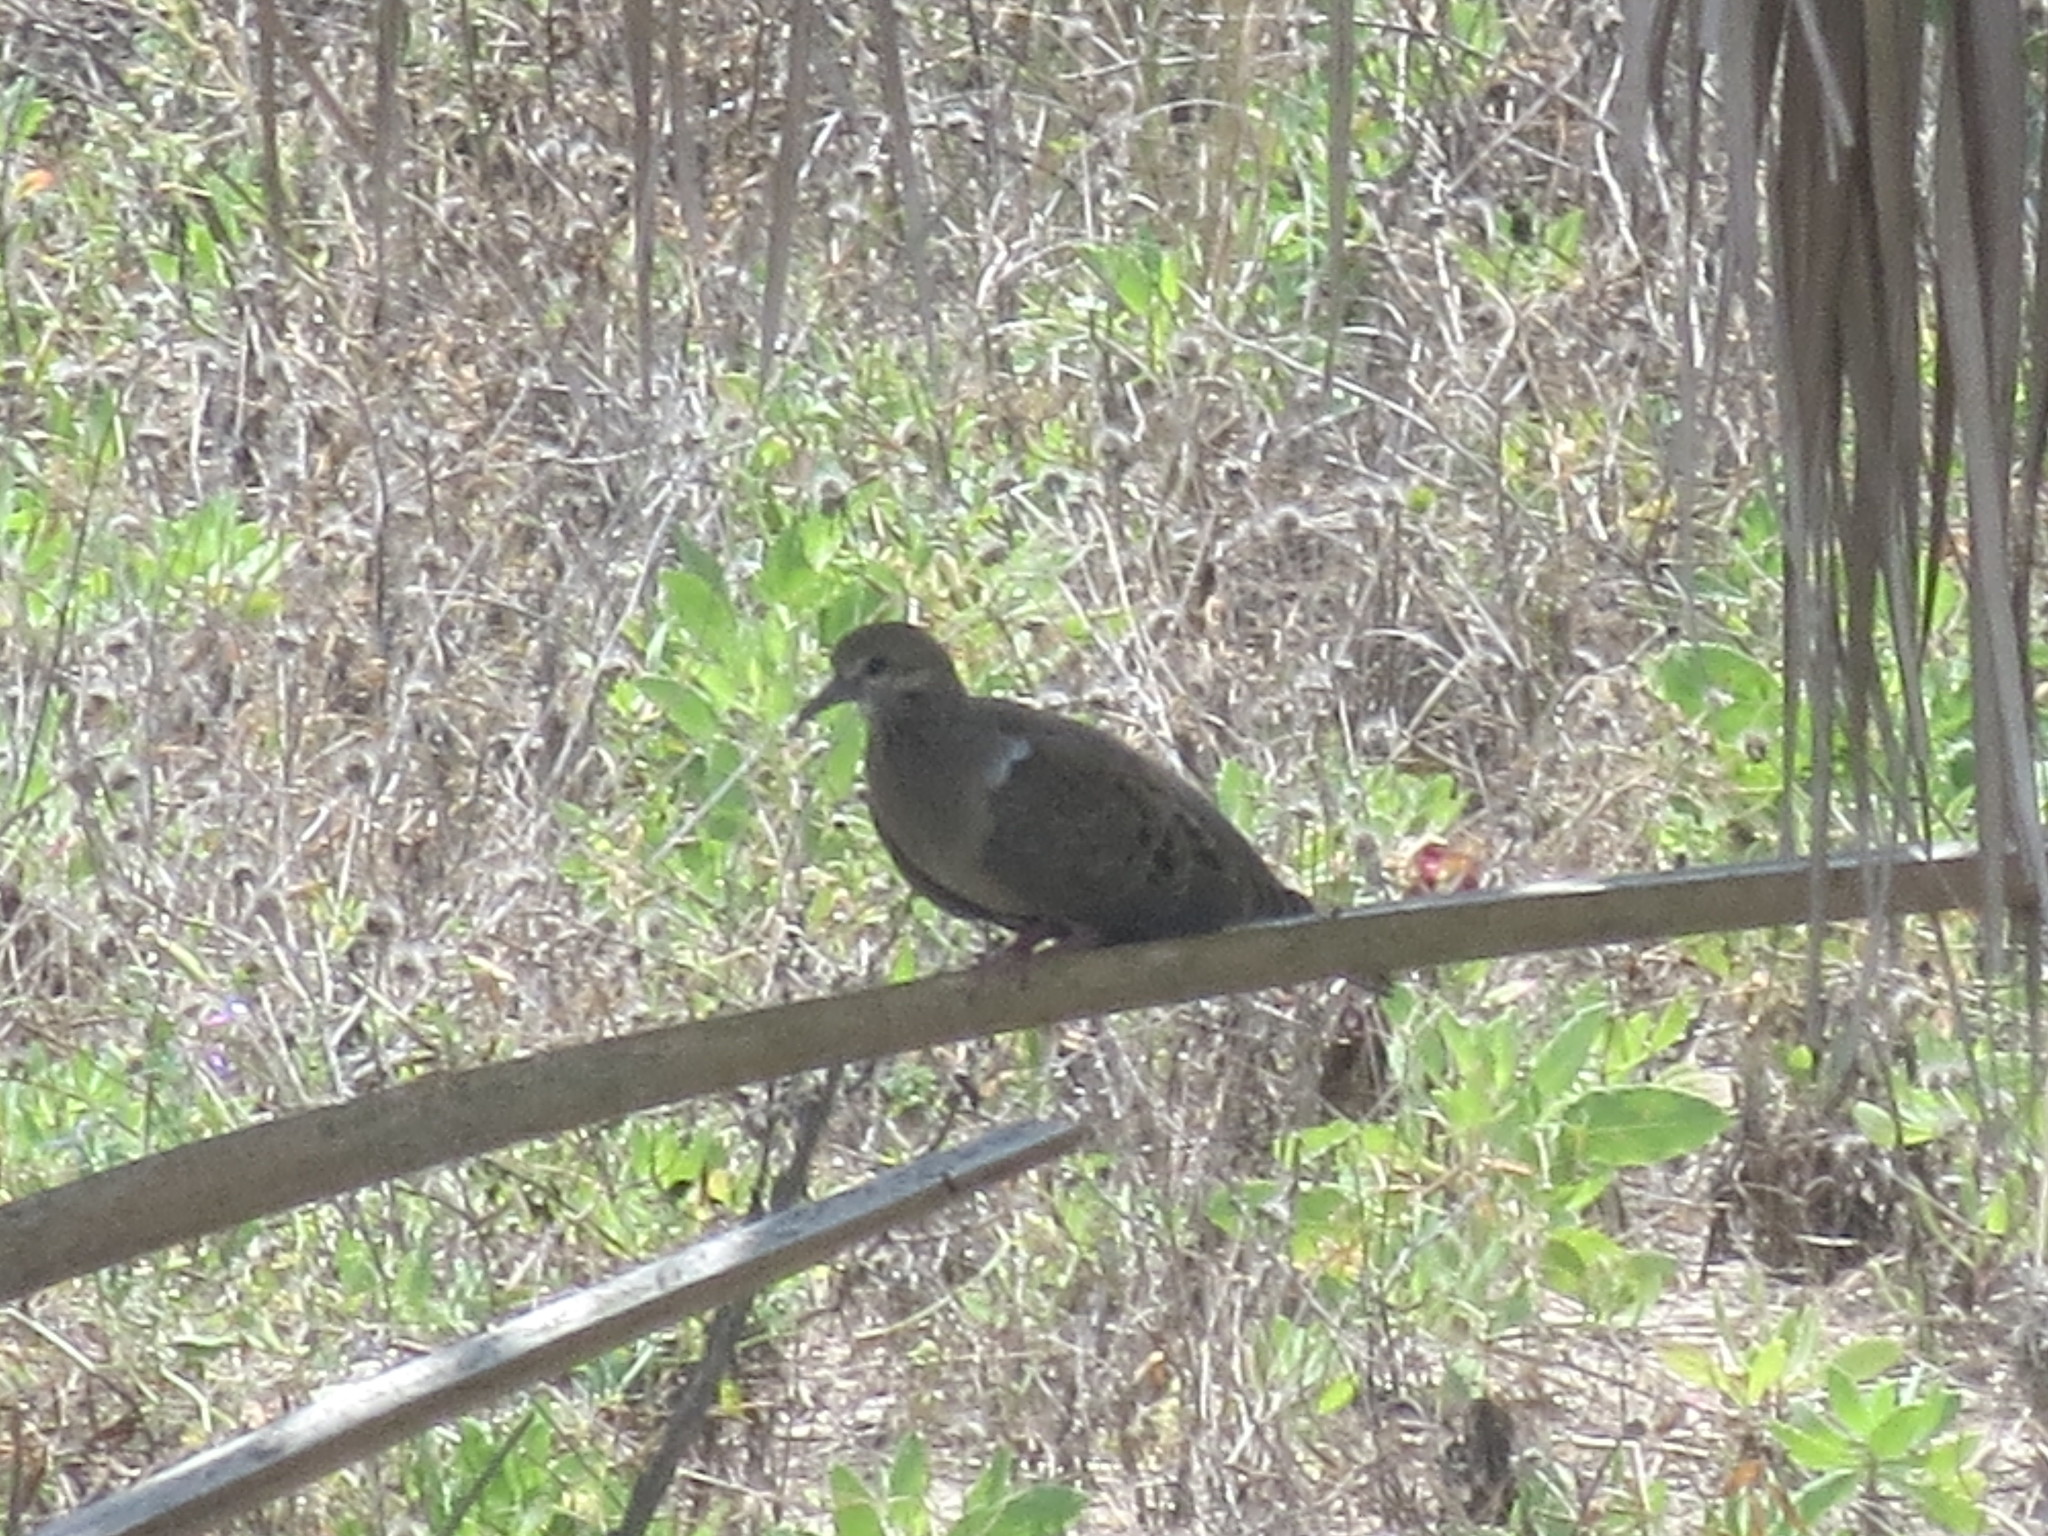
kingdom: Animalia
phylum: Chordata
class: Aves
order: Columbiformes
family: Columbidae
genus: Zenaida
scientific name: Zenaida macroura
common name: Mourning dove
